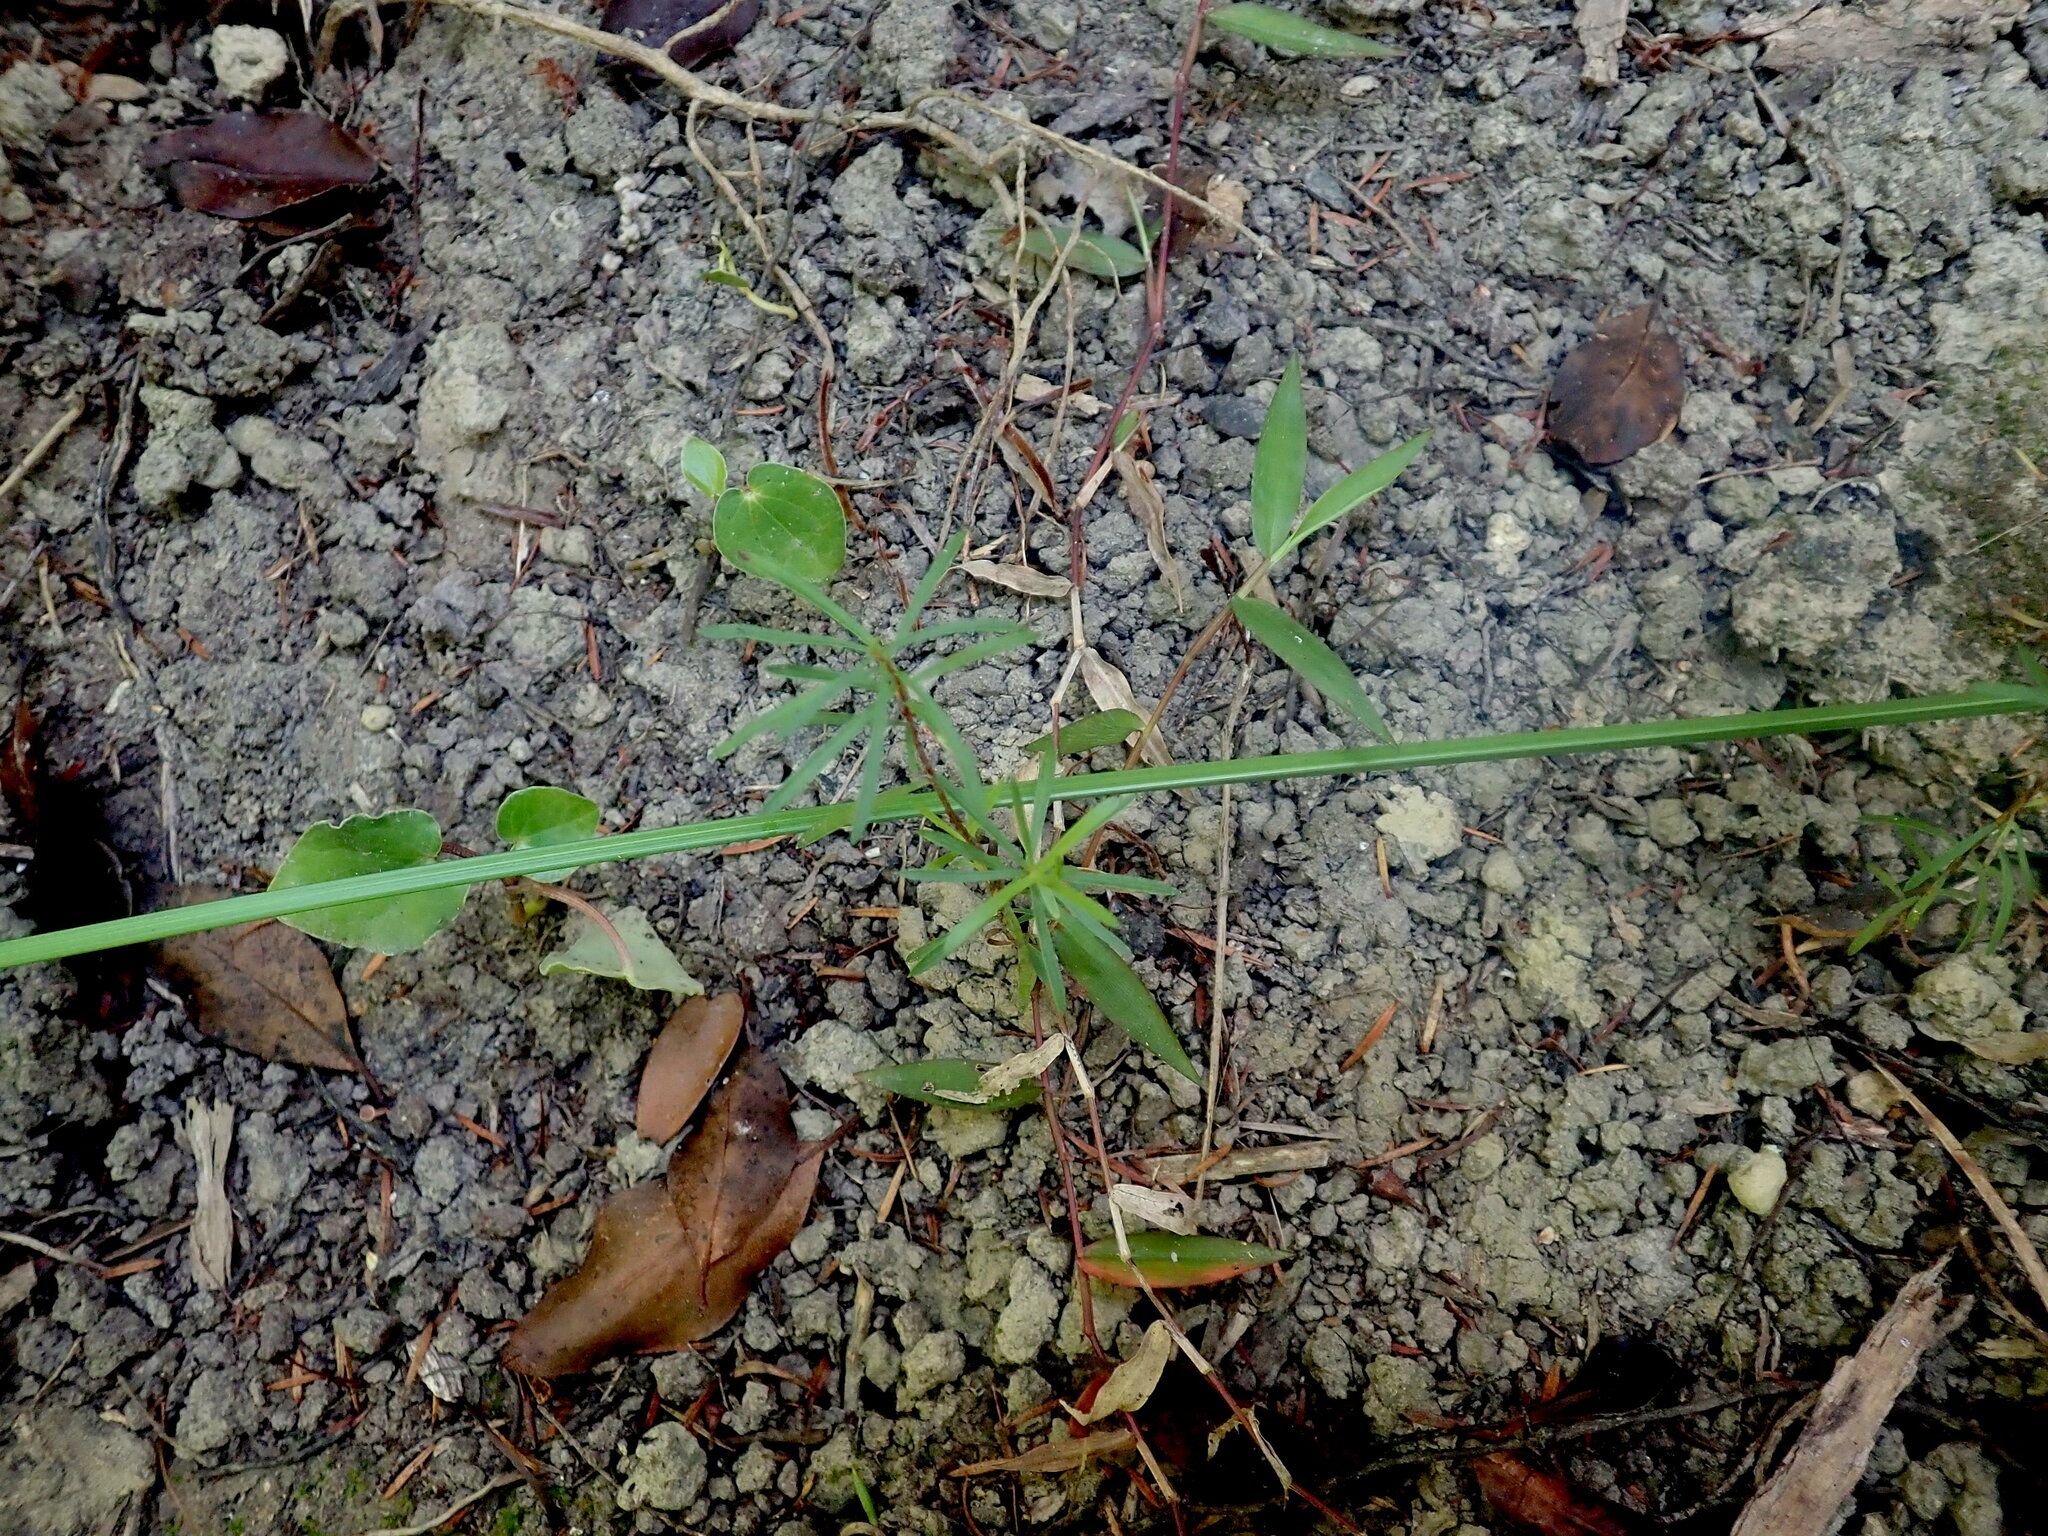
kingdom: Plantae
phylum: Tracheophyta
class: Liliopsida
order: Poales
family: Poaceae
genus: Oplismenus
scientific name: Oplismenus hirtellus
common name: Basketgrass
